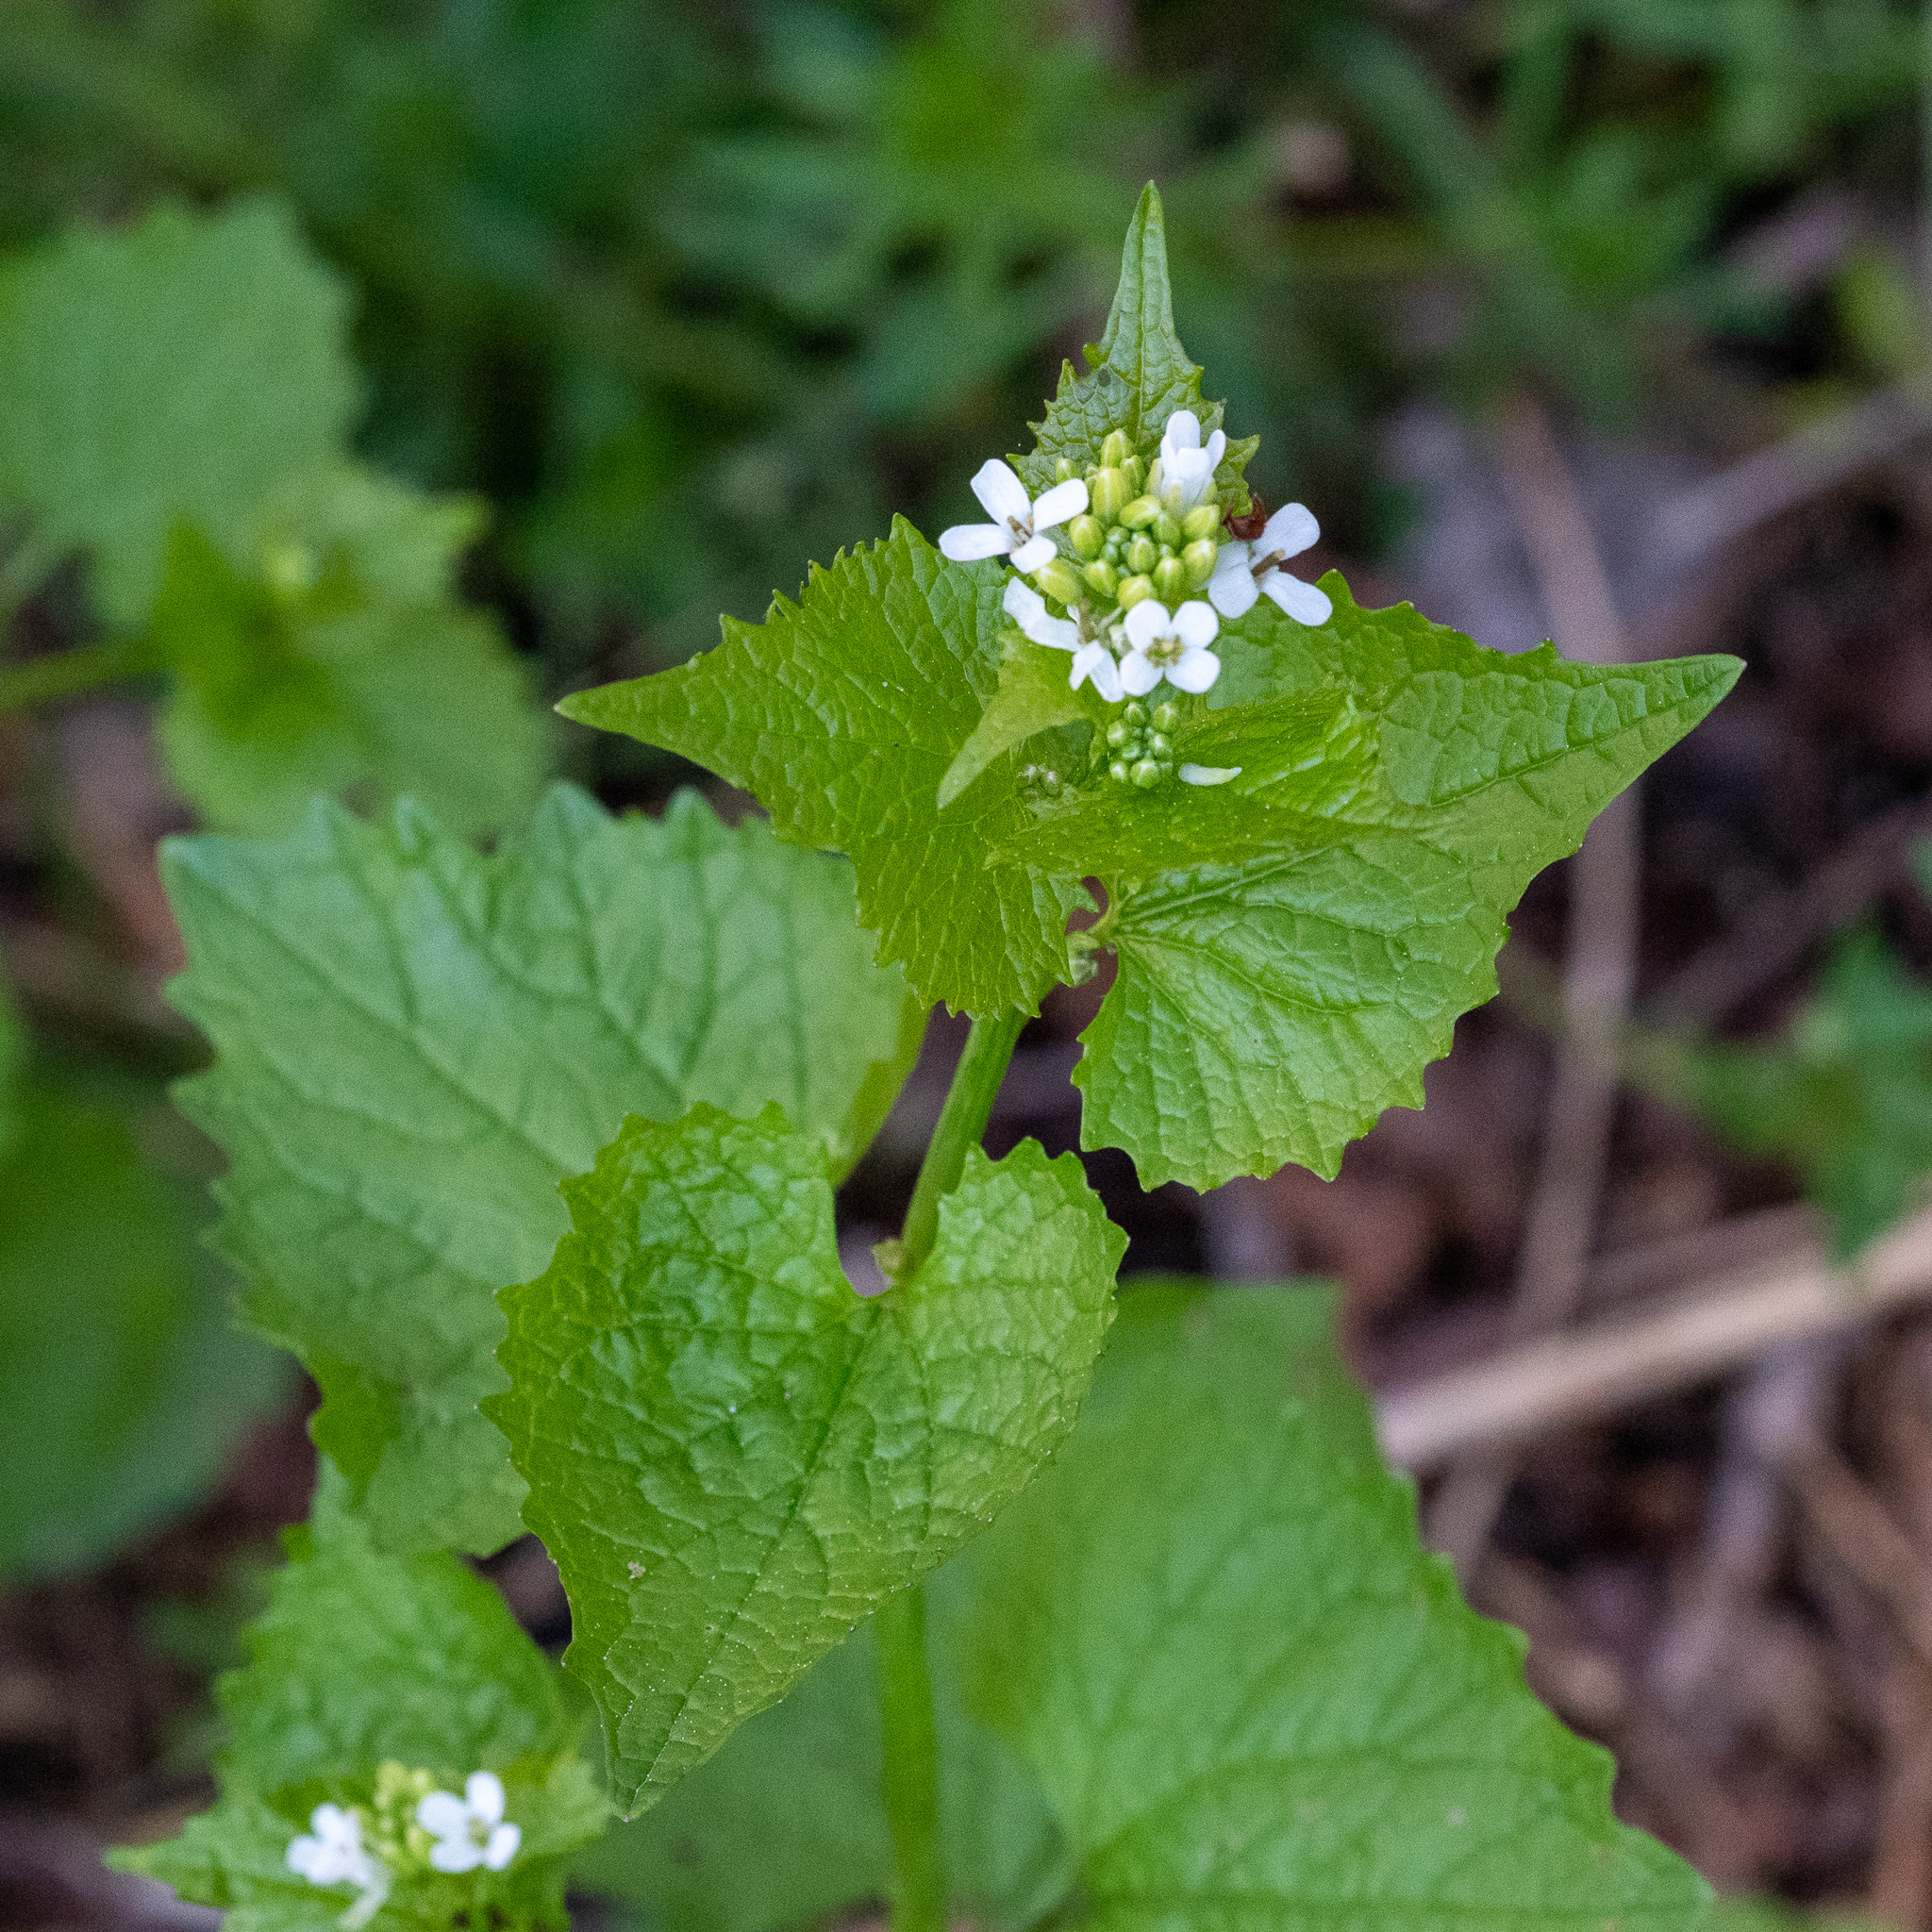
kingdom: Plantae
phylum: Tracheophyta
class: Magnoliopsida
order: Brassicales
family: Brassicaceae
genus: Alliaria
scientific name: Alliaria petiolata
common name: Garlic mustard
